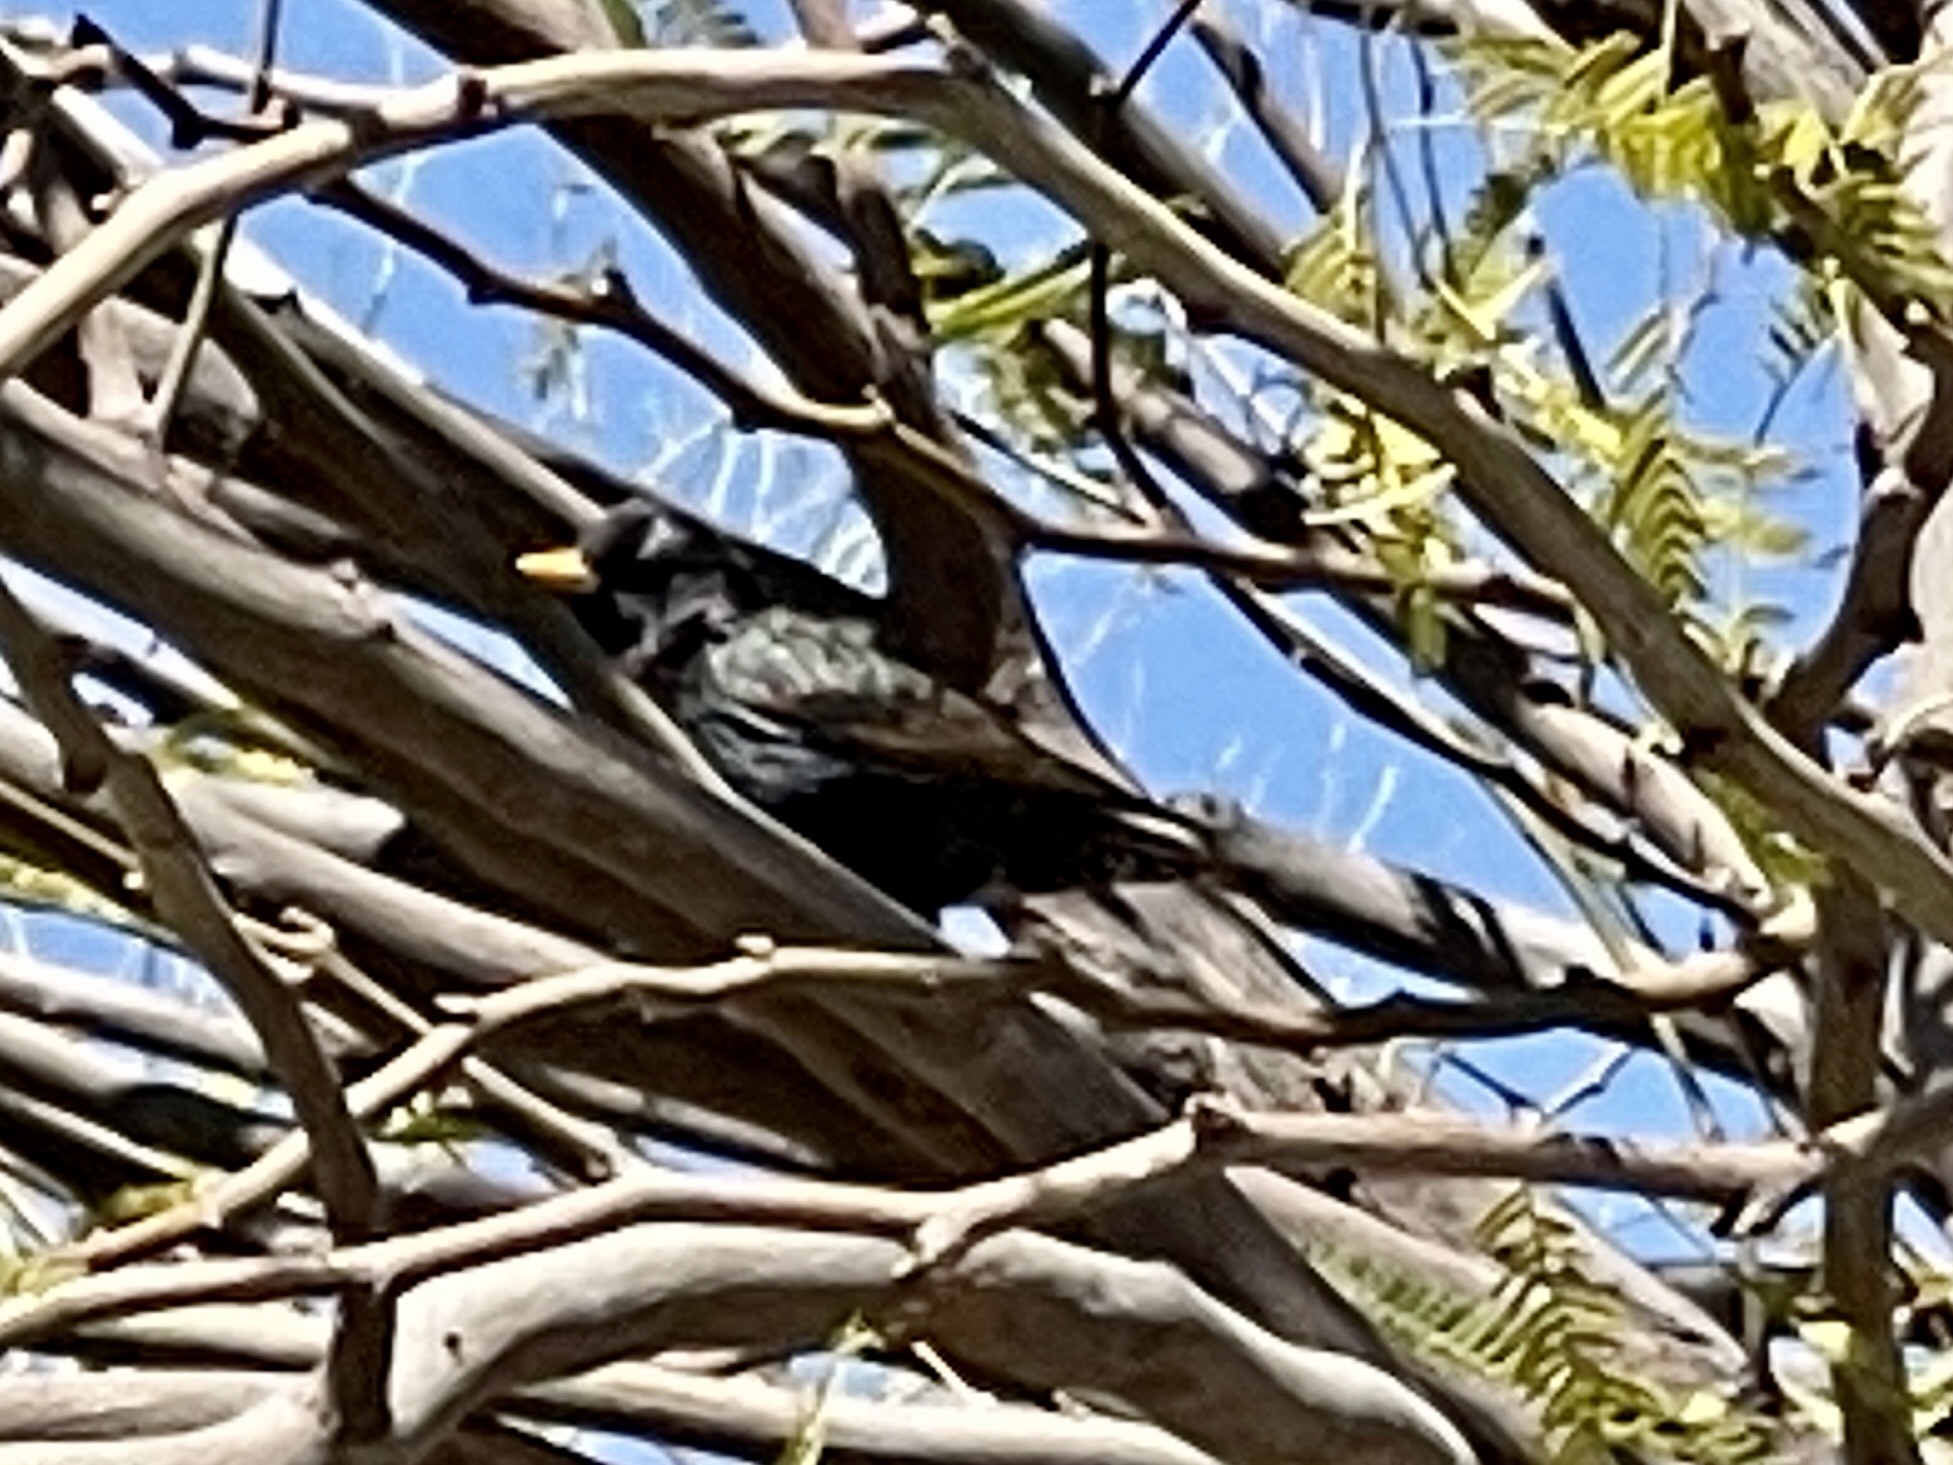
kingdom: Animalia
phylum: Chordata
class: Aves
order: Passeriformes
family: Sturnidae
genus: Sturnus
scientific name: Sturnus vulgaris
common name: Common starling
